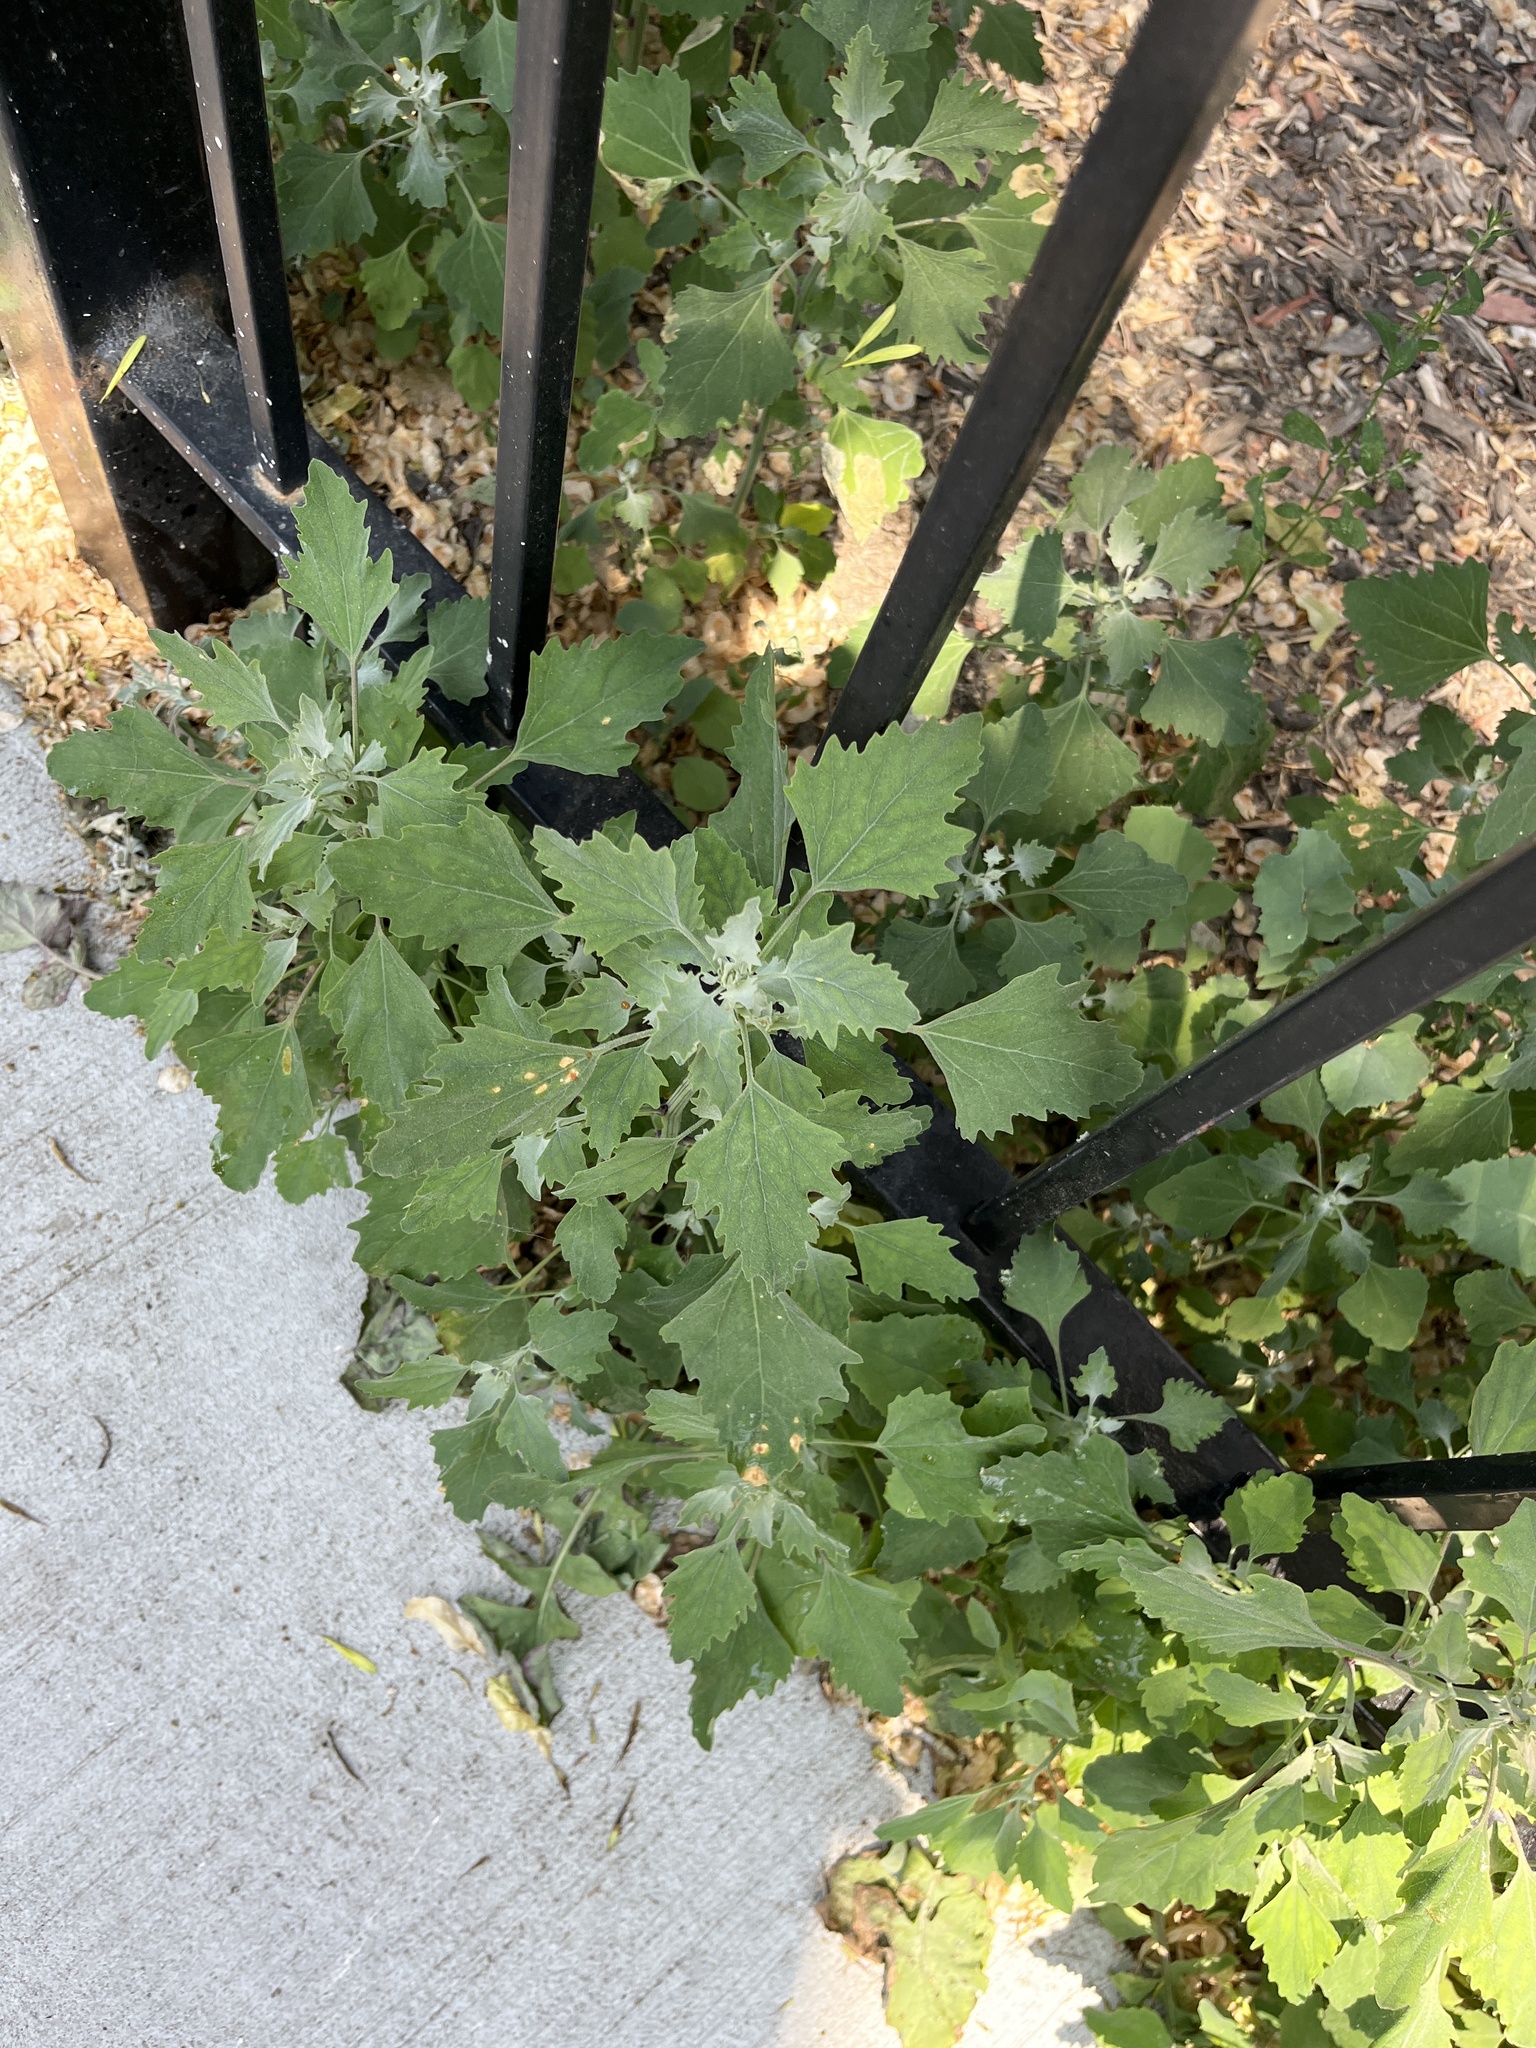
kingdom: Plantae
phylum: Tracheophyta
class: Magnoliopsida
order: Caryophyllales
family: Amaranthaceae
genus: Chenopodium
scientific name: Chenopodium album
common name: Fat-hen
